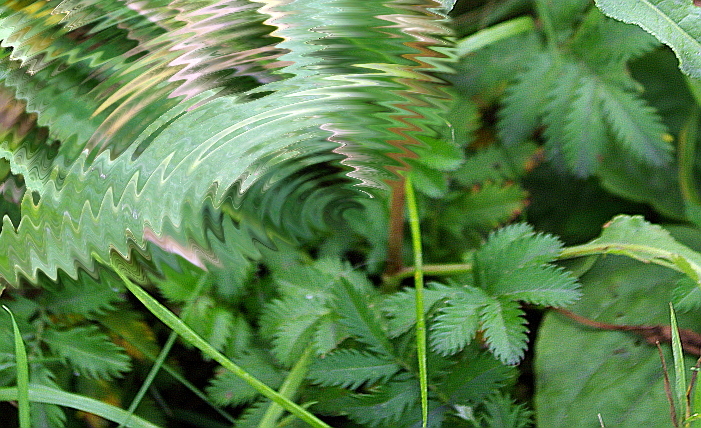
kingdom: Plantae
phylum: Tracheophyta
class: Magnoliopsida
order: Rosales
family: Rosaceae
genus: Argentina
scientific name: Argentina anserina
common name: Common silverweed
